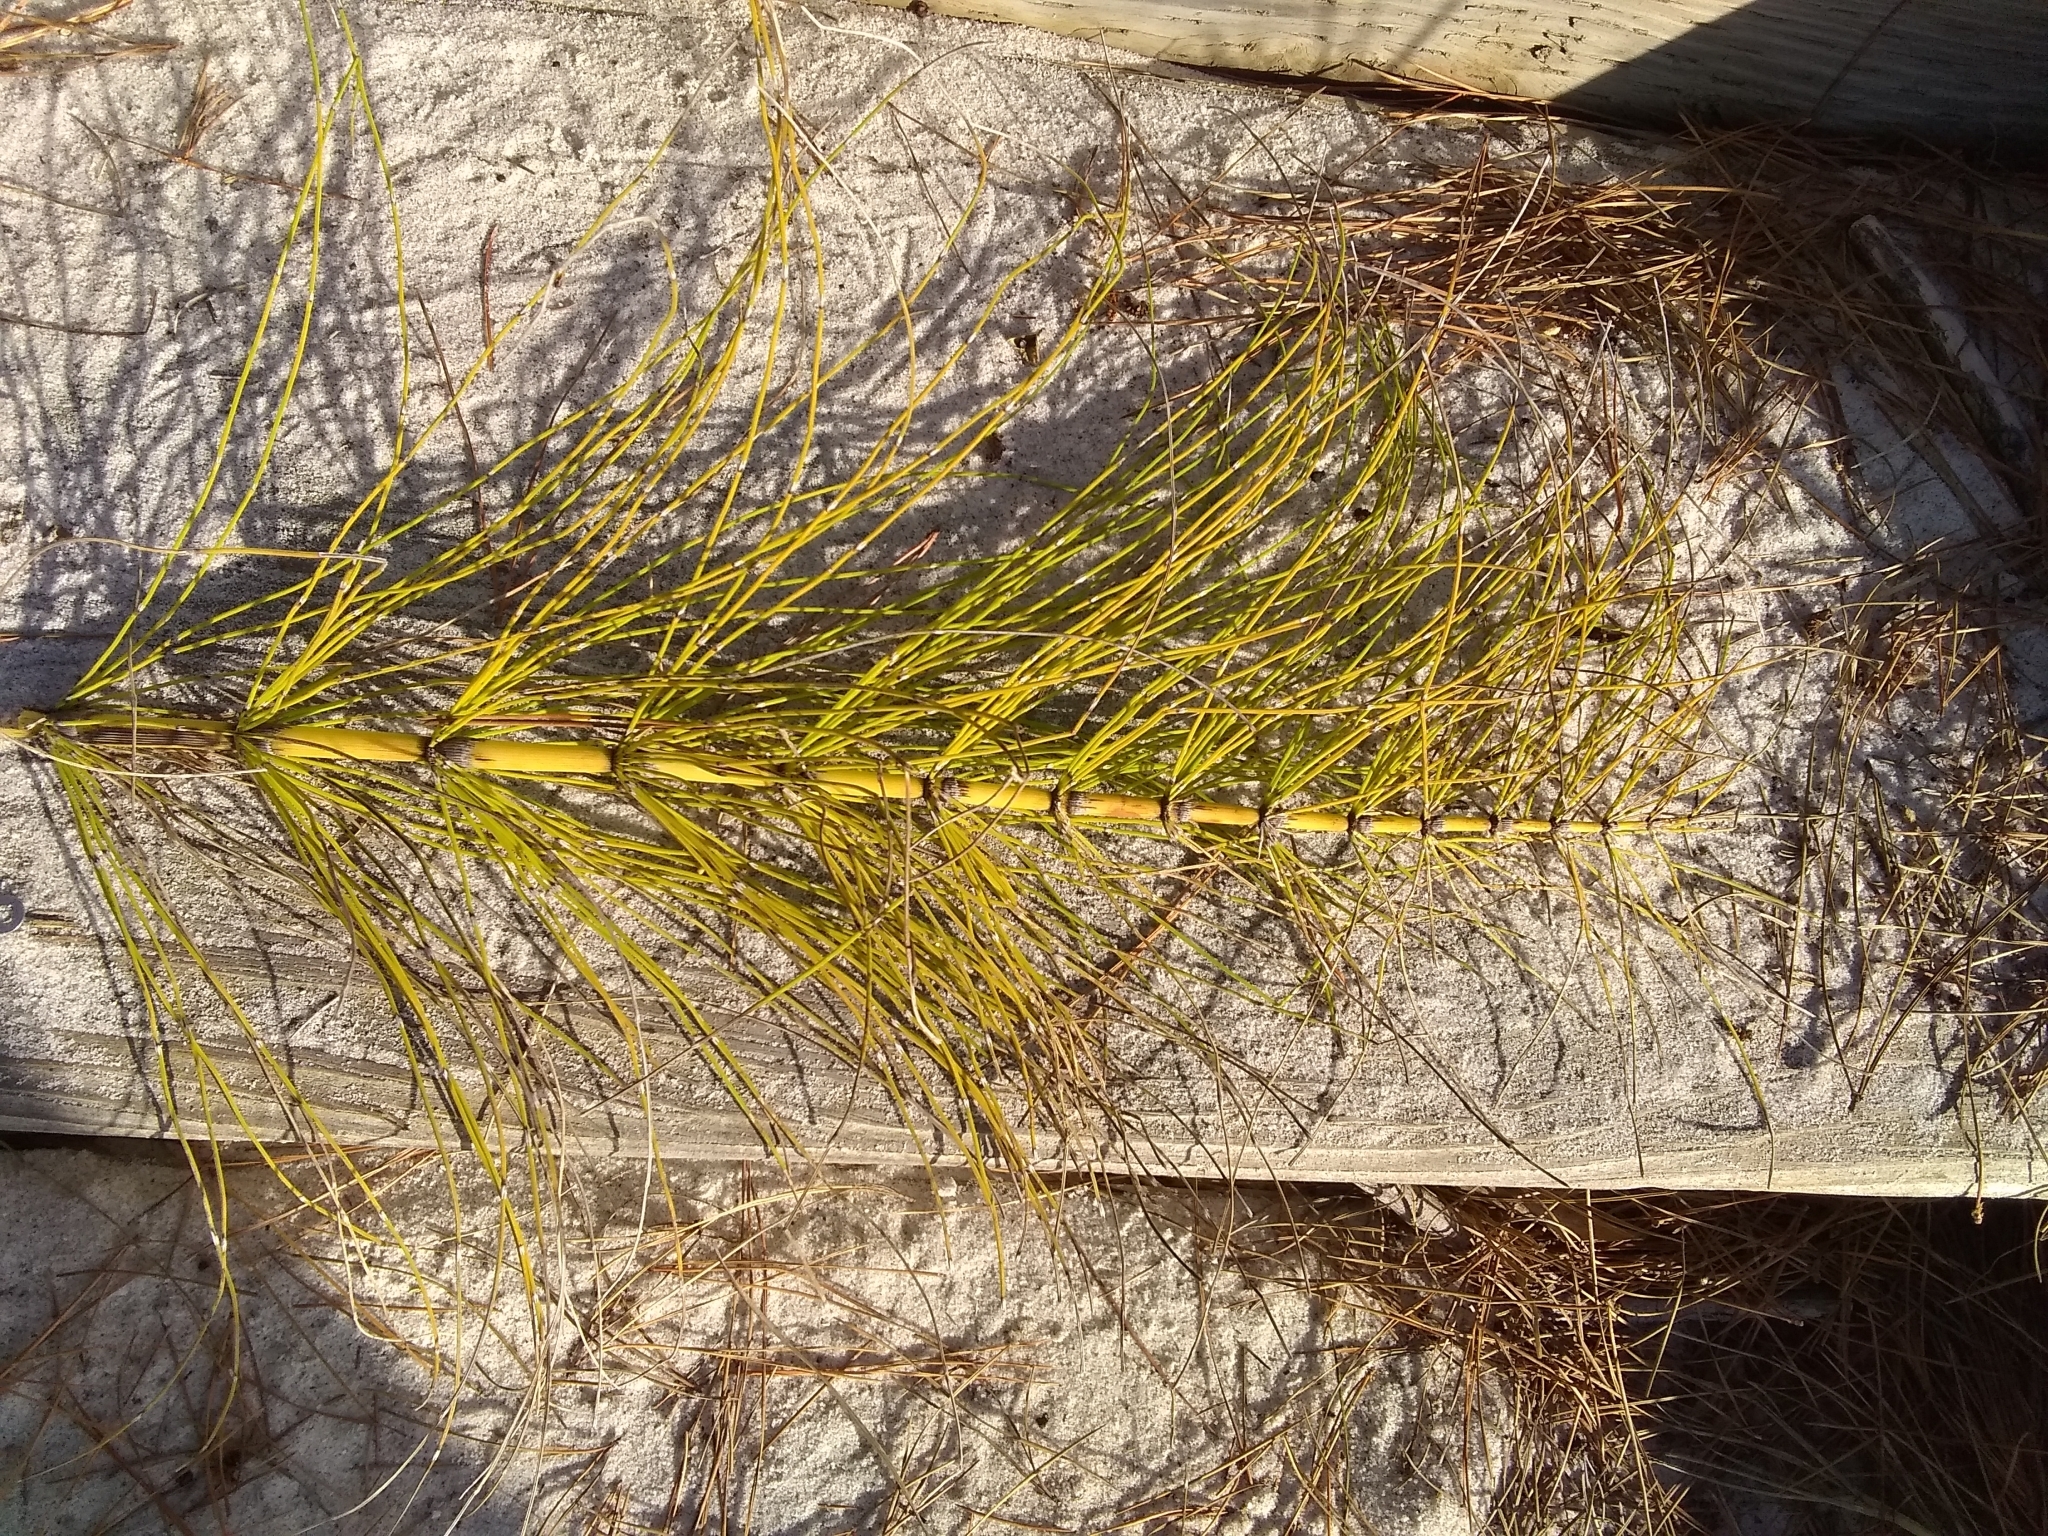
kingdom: Plantae
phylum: Tracheophyta
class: Polypodiopsida
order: Equisetales
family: Equisetaceae
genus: Equisetum
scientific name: Equisetum telmateia
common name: Great horsetail
